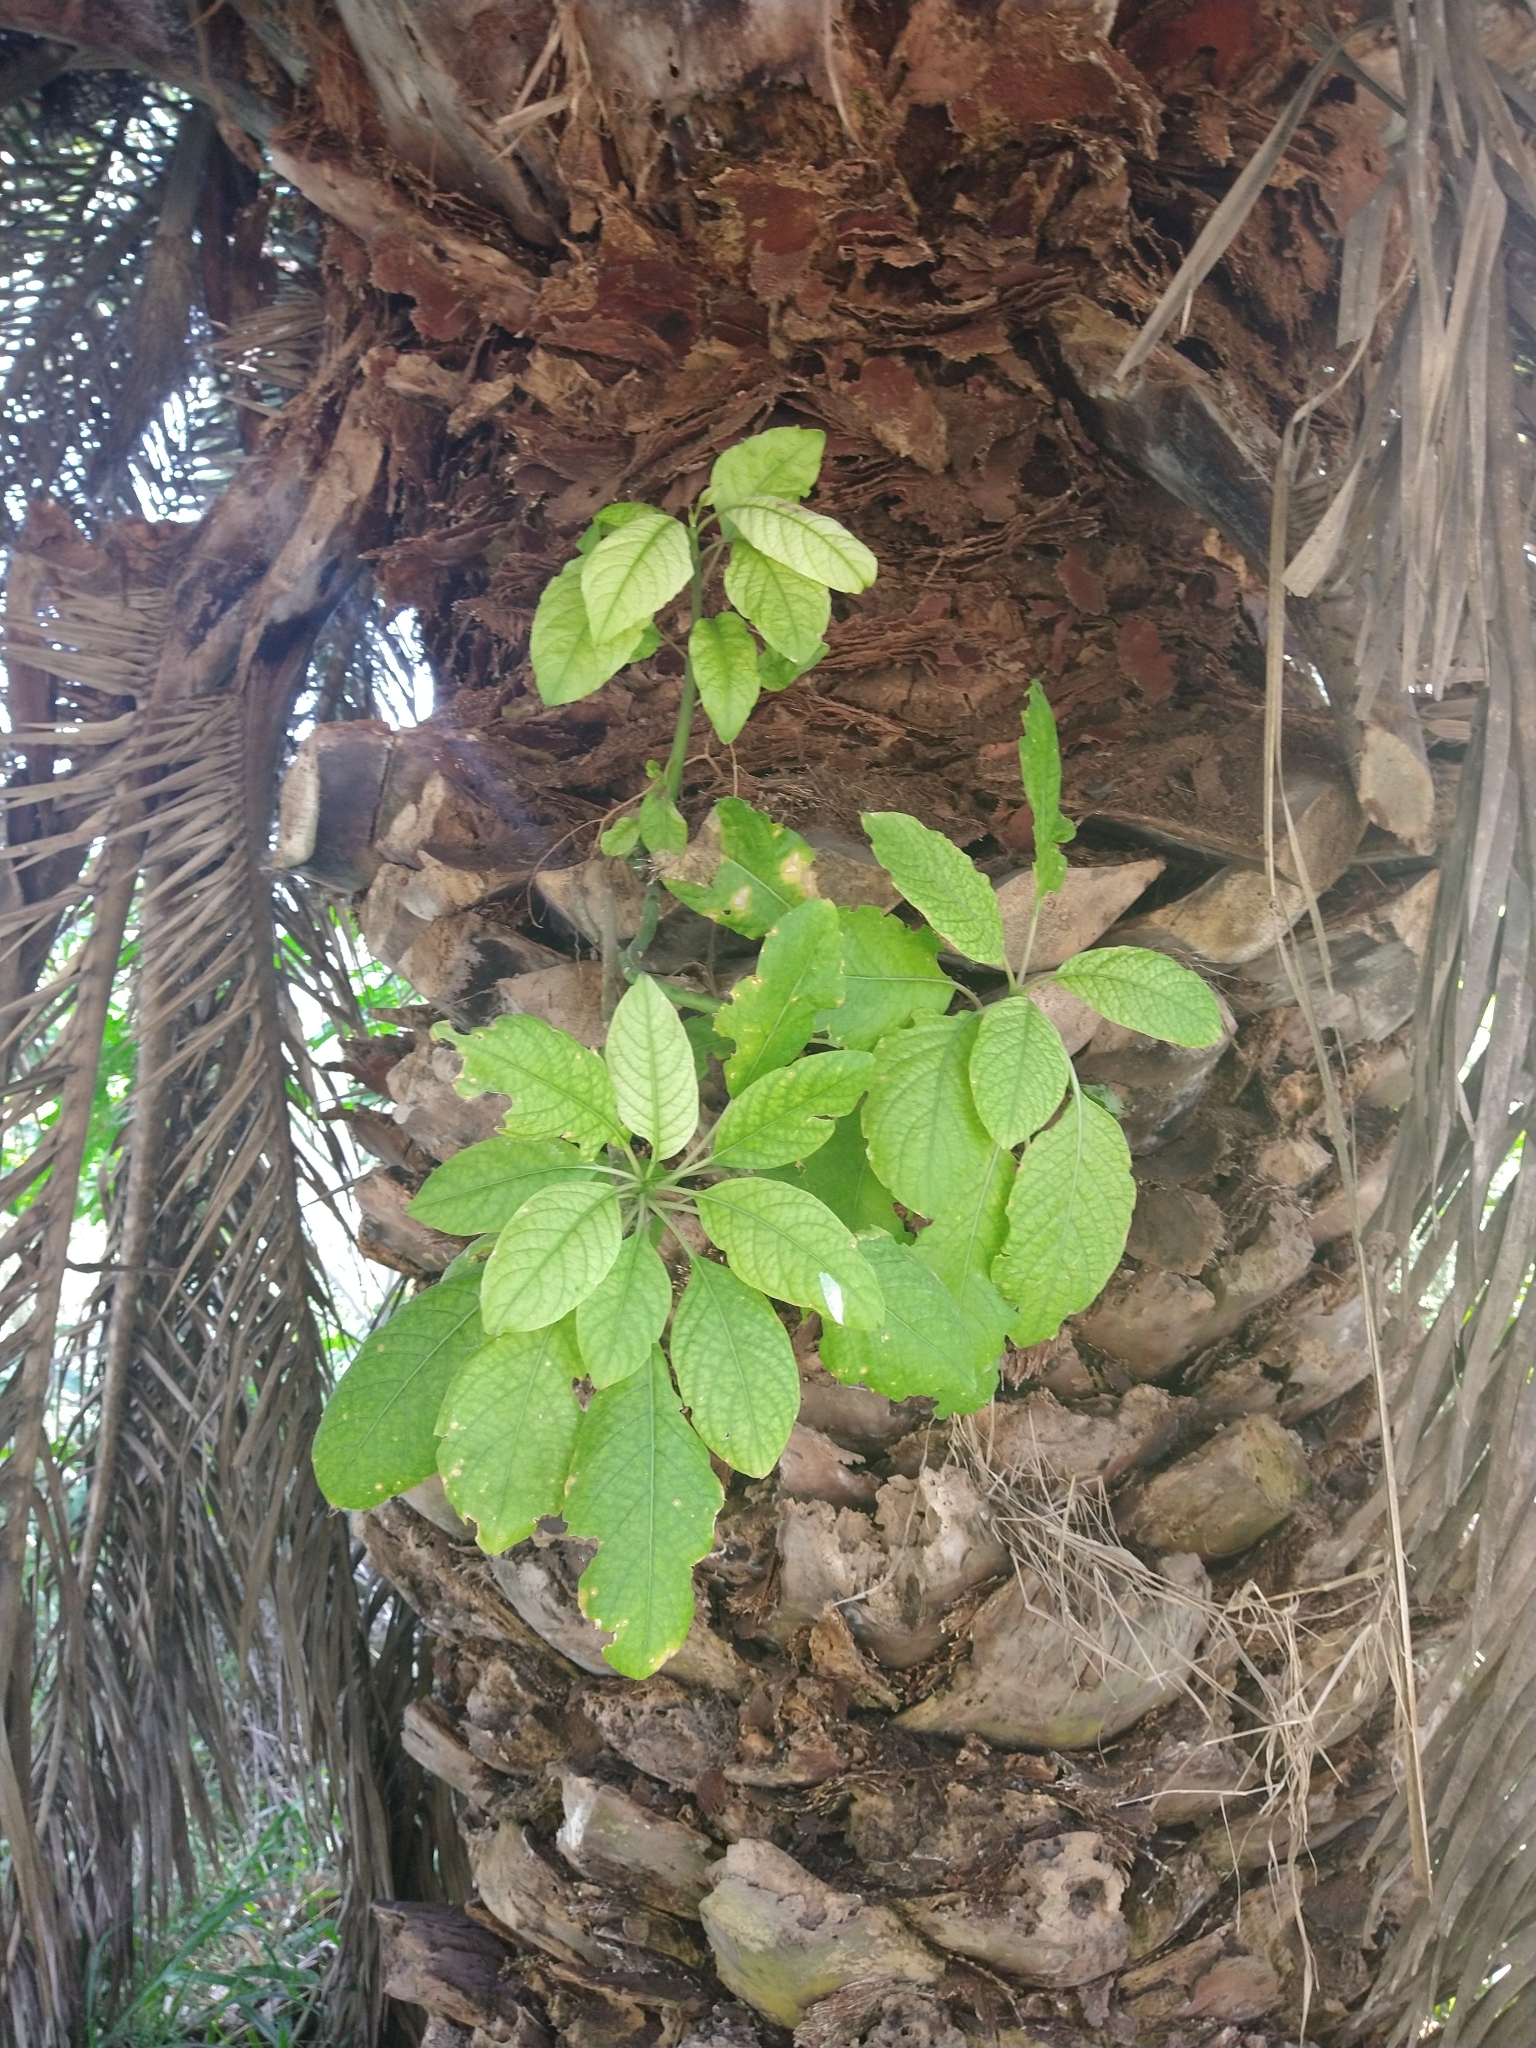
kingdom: Plantae
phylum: Tracheophyta
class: Magnoliopsida
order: Caryophyllales
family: Phytolaccaceae
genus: Phytolacca
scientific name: Phytolacca dioica
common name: Pokeweed
